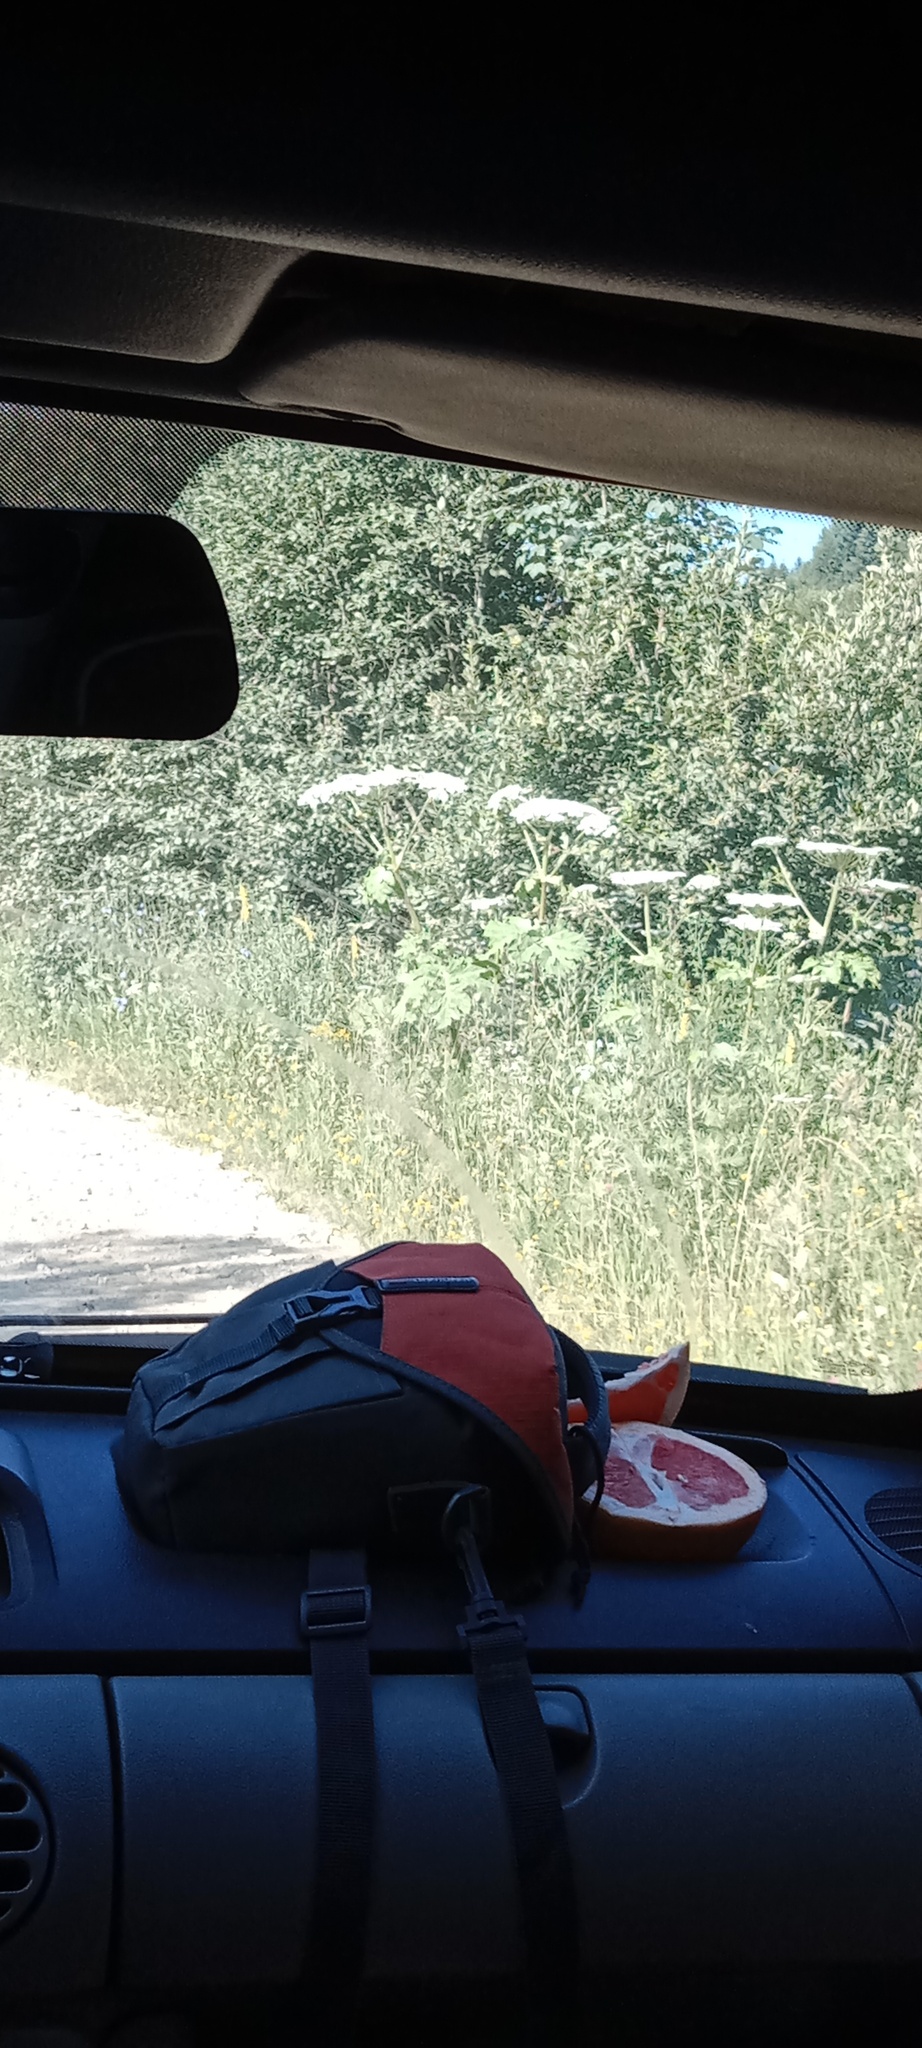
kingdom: Plantae
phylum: Tracheophyta
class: Magnoliopsida
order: Apiales
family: Apiaceae
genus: Heracleum
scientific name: Heracleum sosnowskyi
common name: Sosnowsky's hogweed
